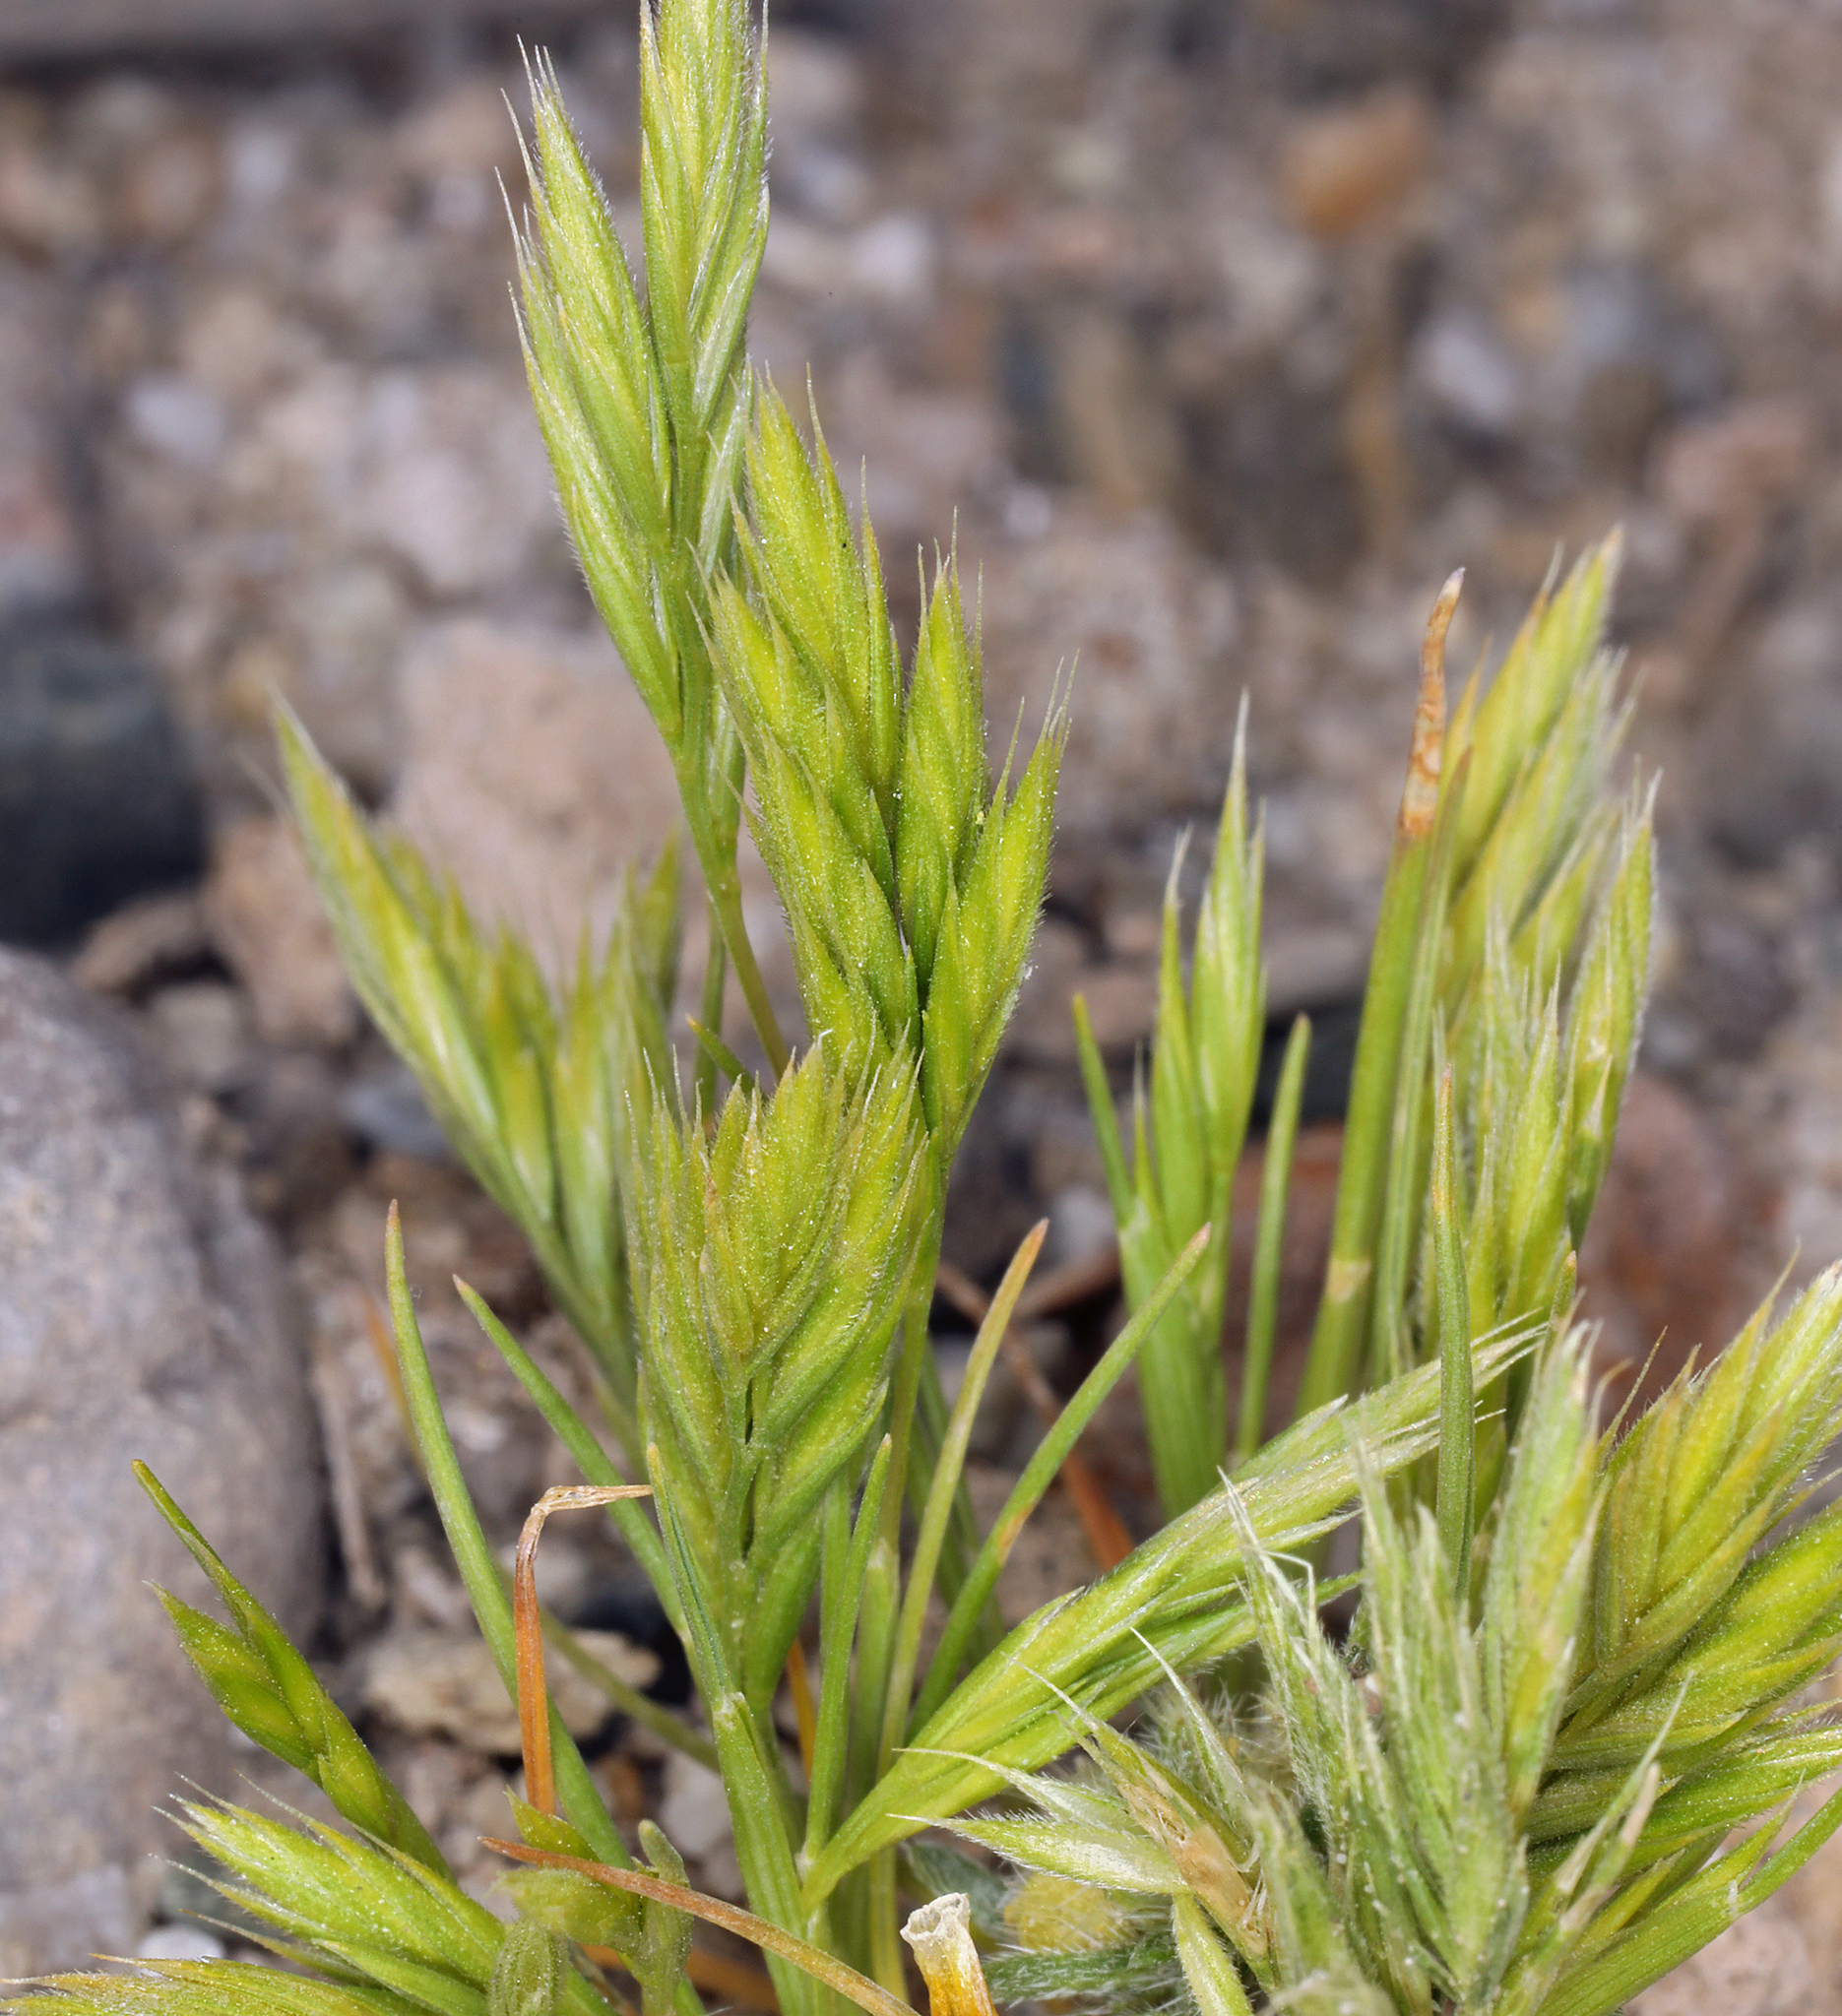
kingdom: Plantae
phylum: Tracheophyta
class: Liliopsida
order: Poales
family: Poaceae
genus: Festuca
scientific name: Festuca octoflora
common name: Sixweeks grass
